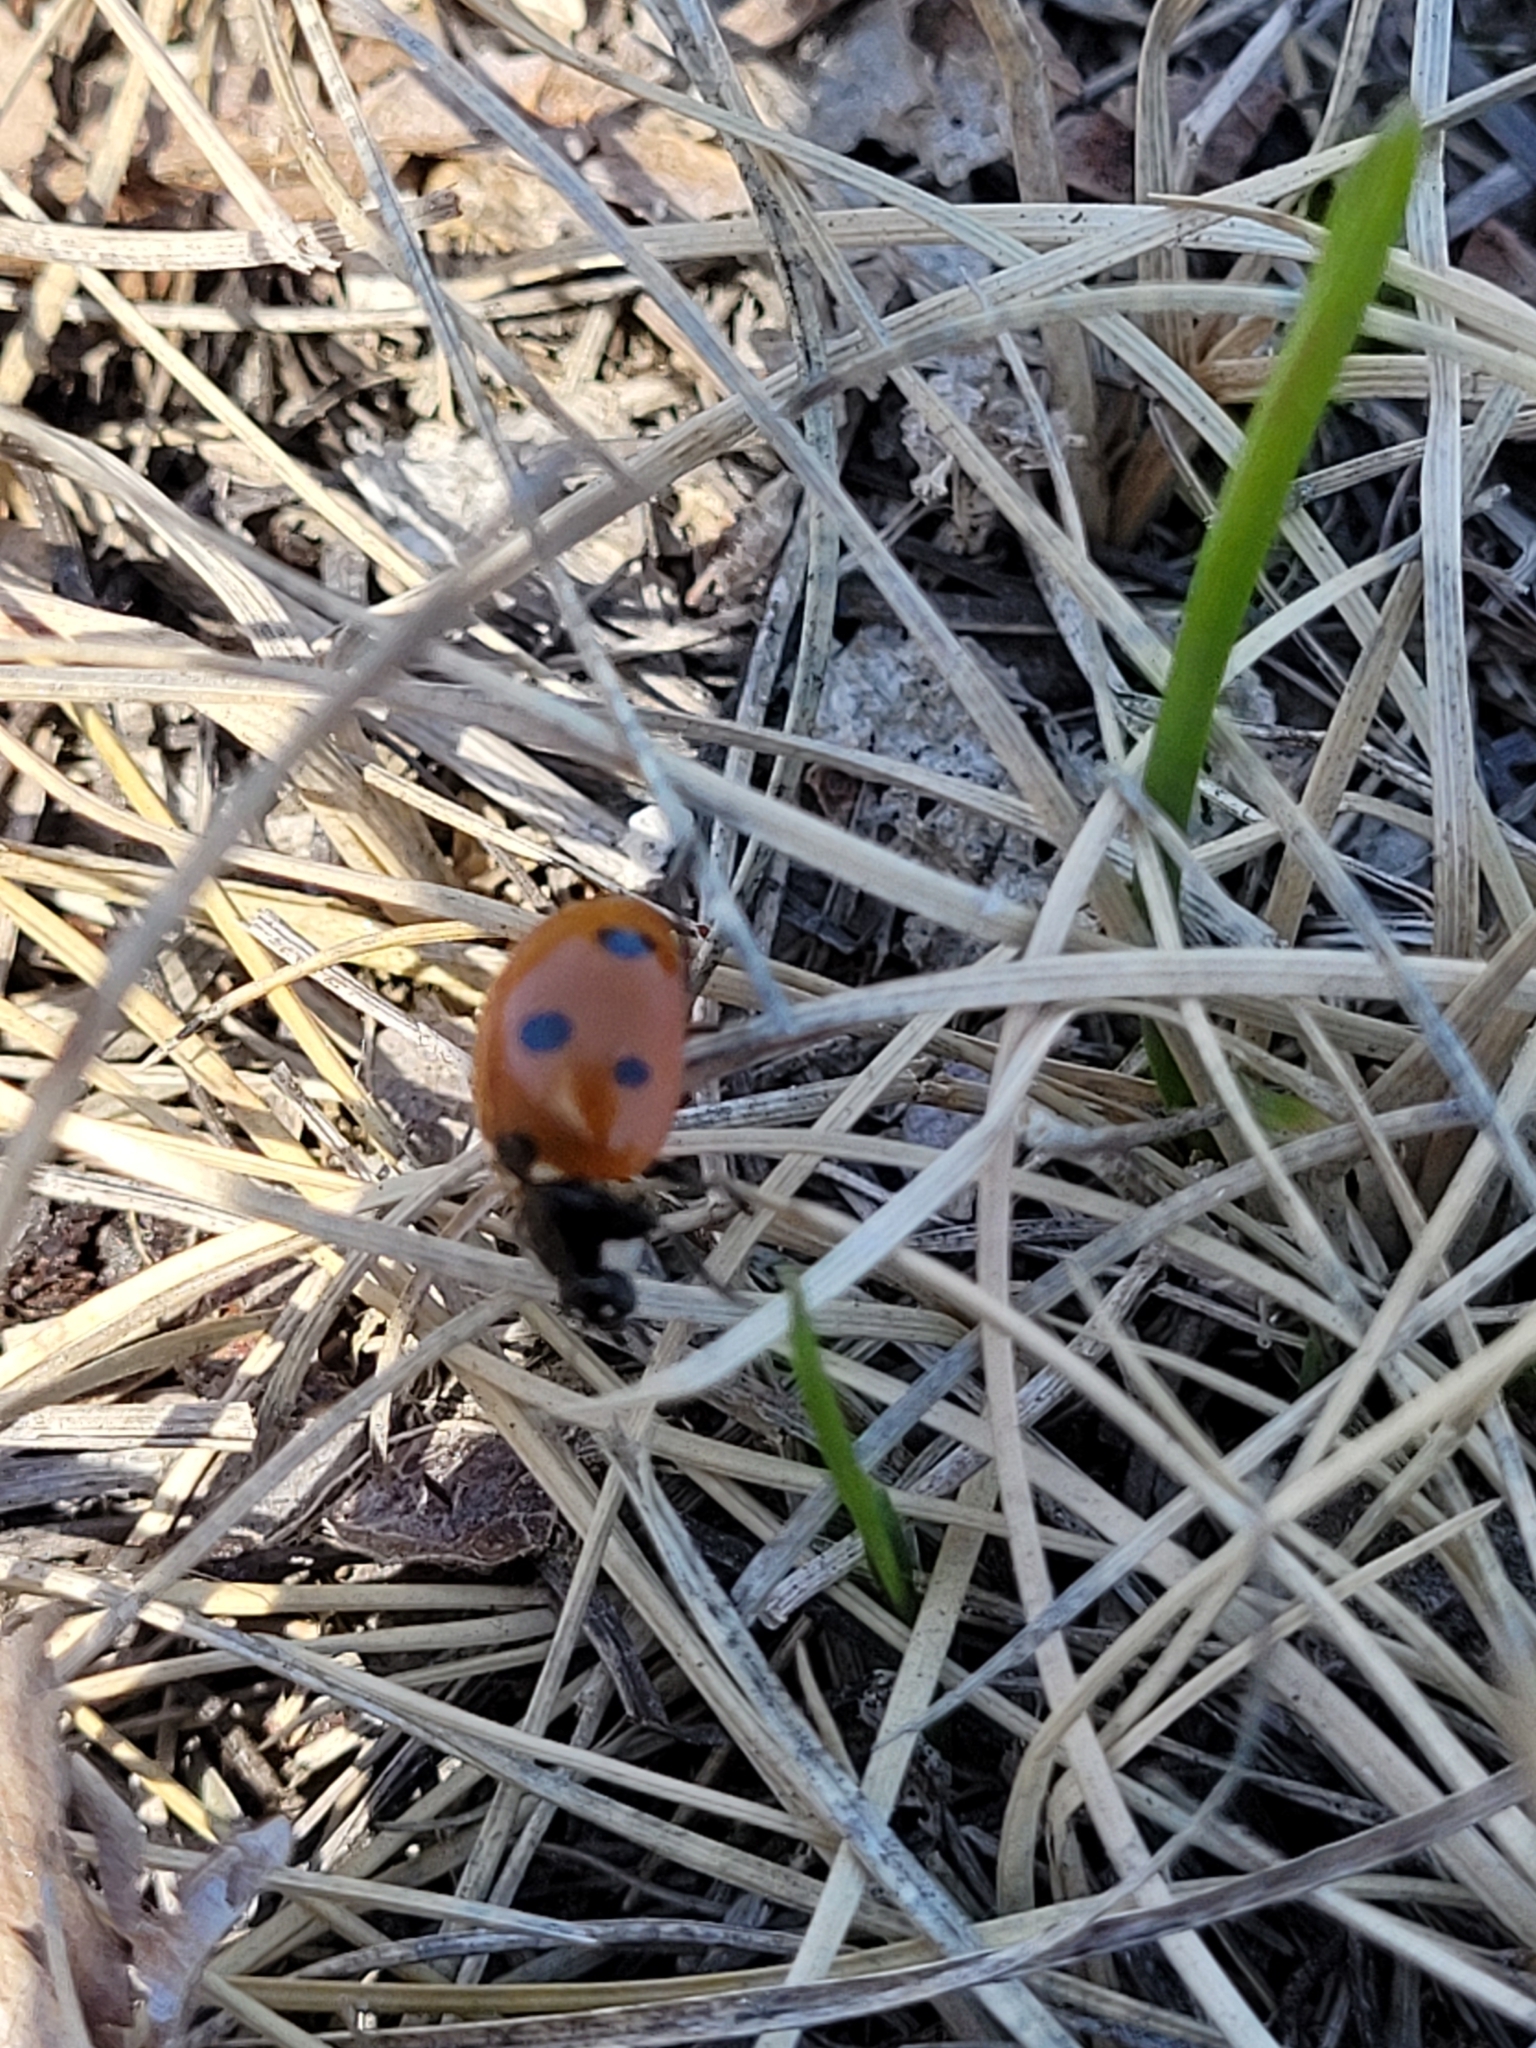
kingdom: Animalia
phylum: Arthropoda
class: Insecta
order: Coleoptera
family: Coccinellidae
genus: Coccinella
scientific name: Coccinella septempunctata
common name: Sevenspotted lady beetle
